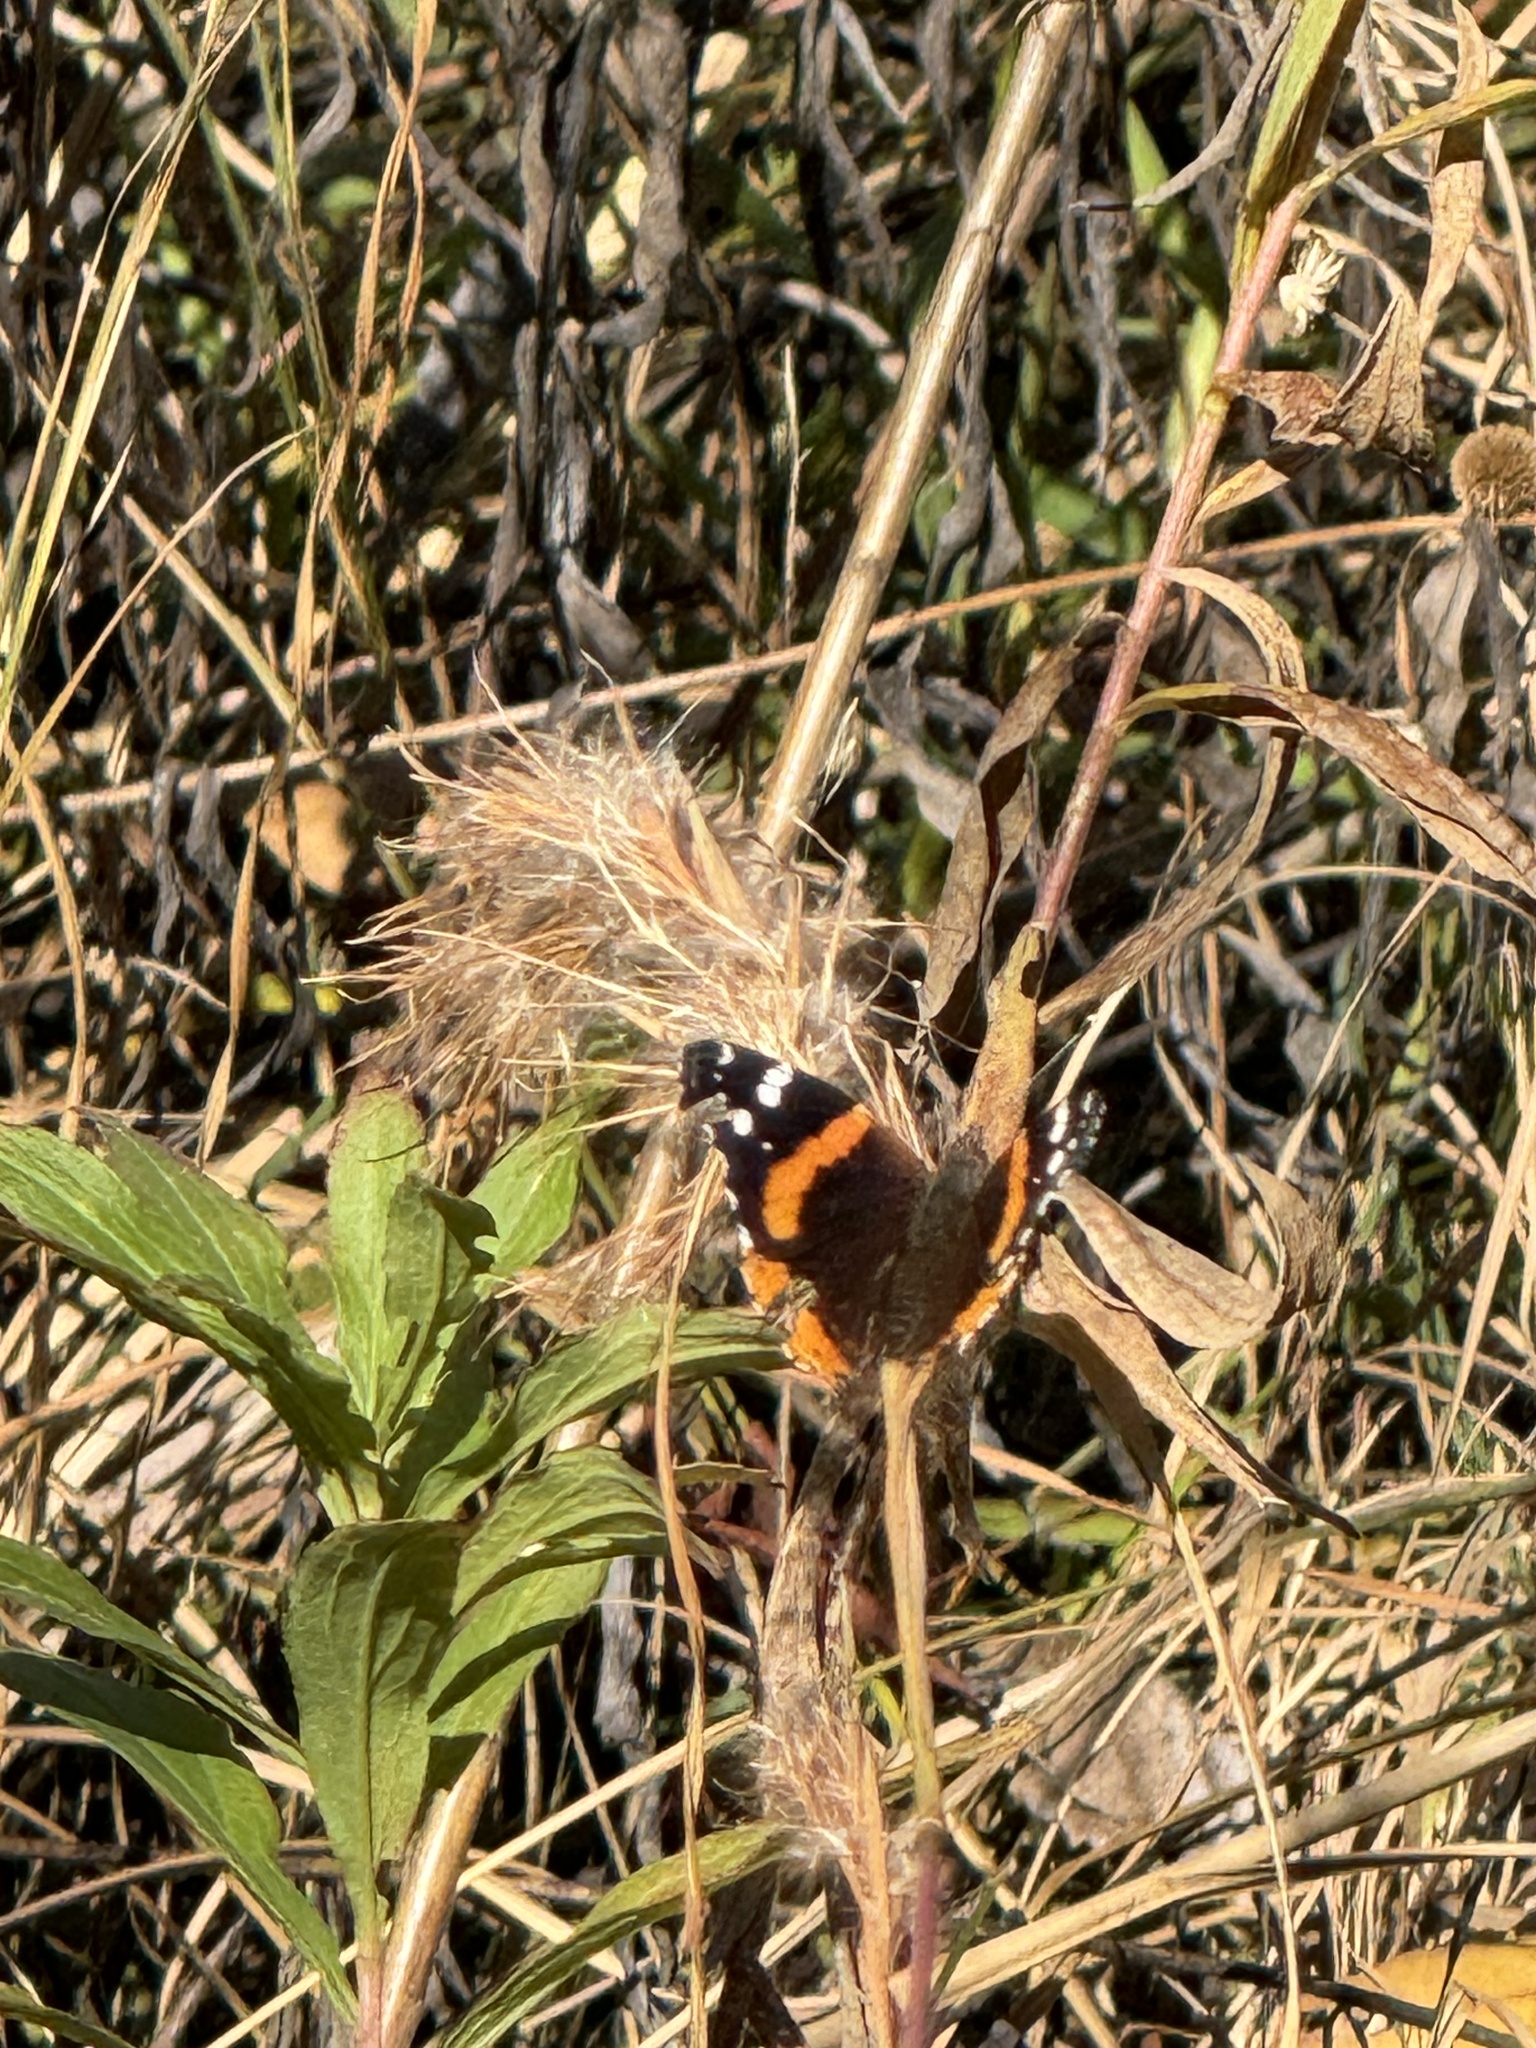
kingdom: Animalia
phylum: Arthropoda
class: Insecta
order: Lepidoptera
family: Nymphalidae
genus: Vanessa
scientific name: Vanessa atalanta
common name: Red admiral
